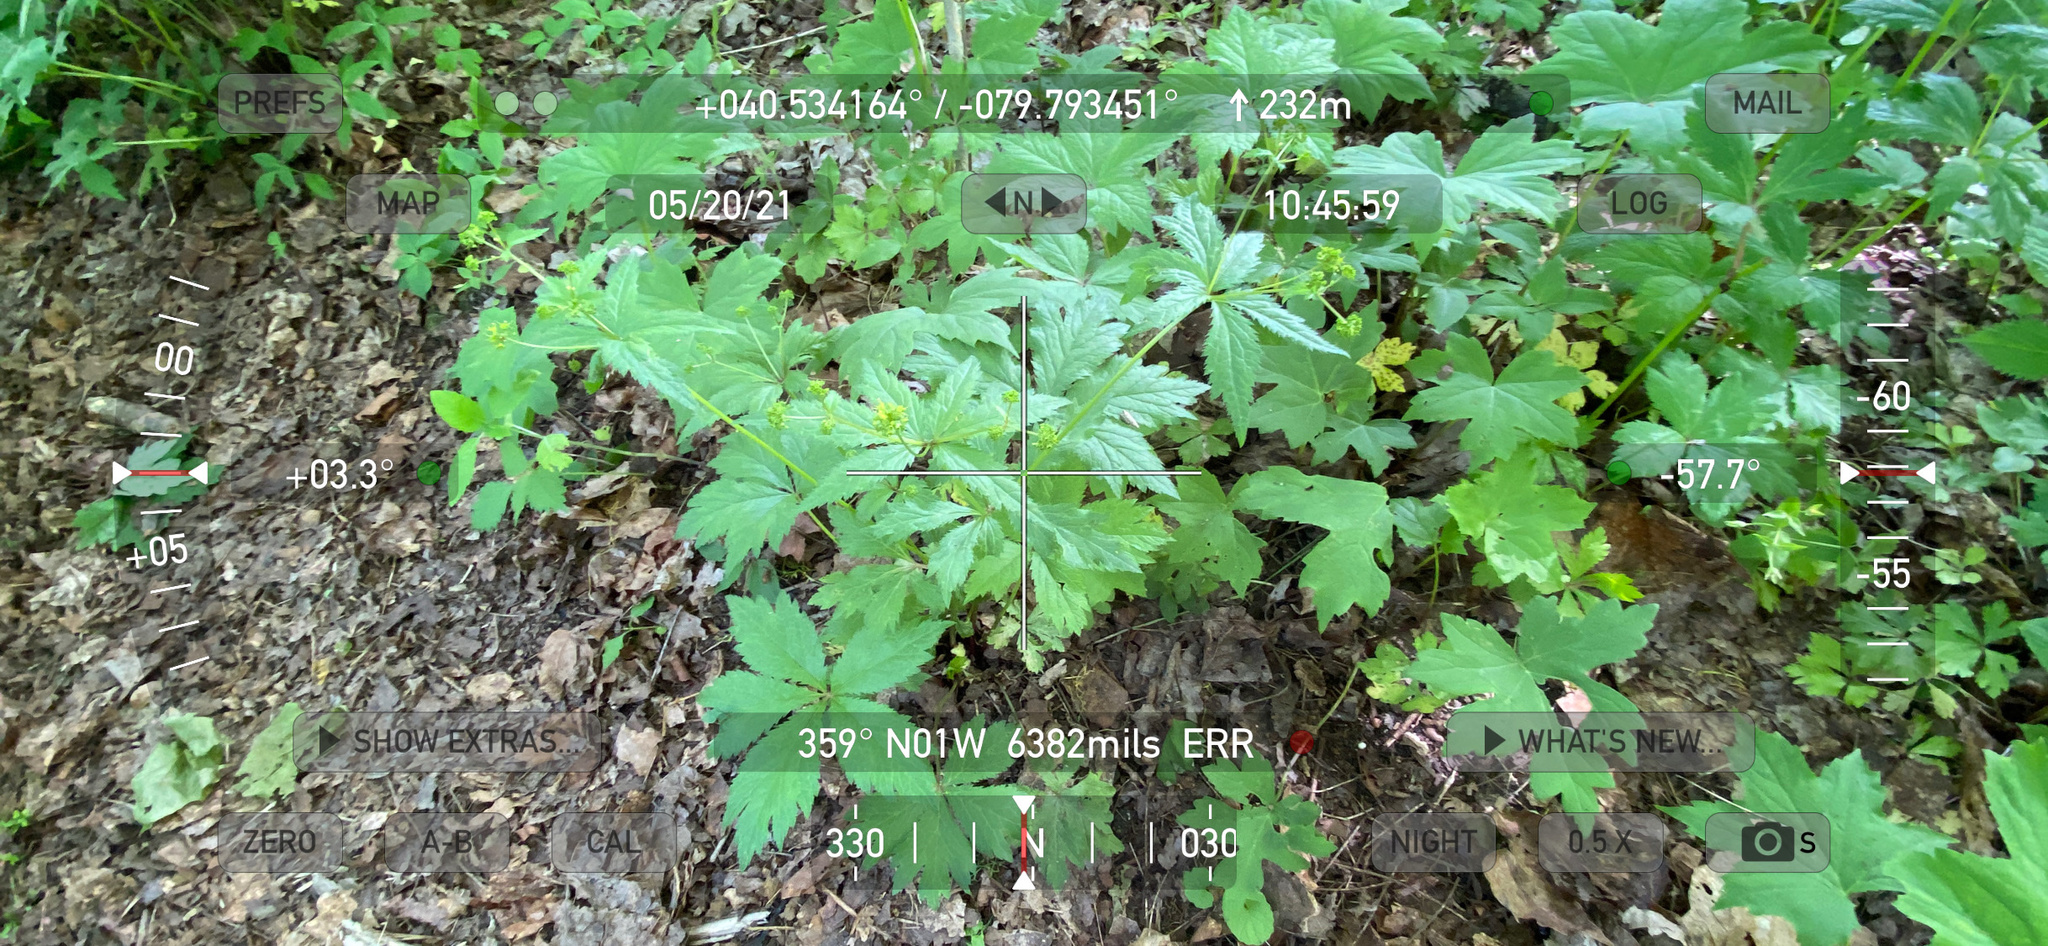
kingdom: Plantae
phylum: Tracheophyta
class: Magnoliopsida
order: Apiales
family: Apiaceae
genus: Sanicula
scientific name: Sanicula odorata
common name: Cluster sanicle
